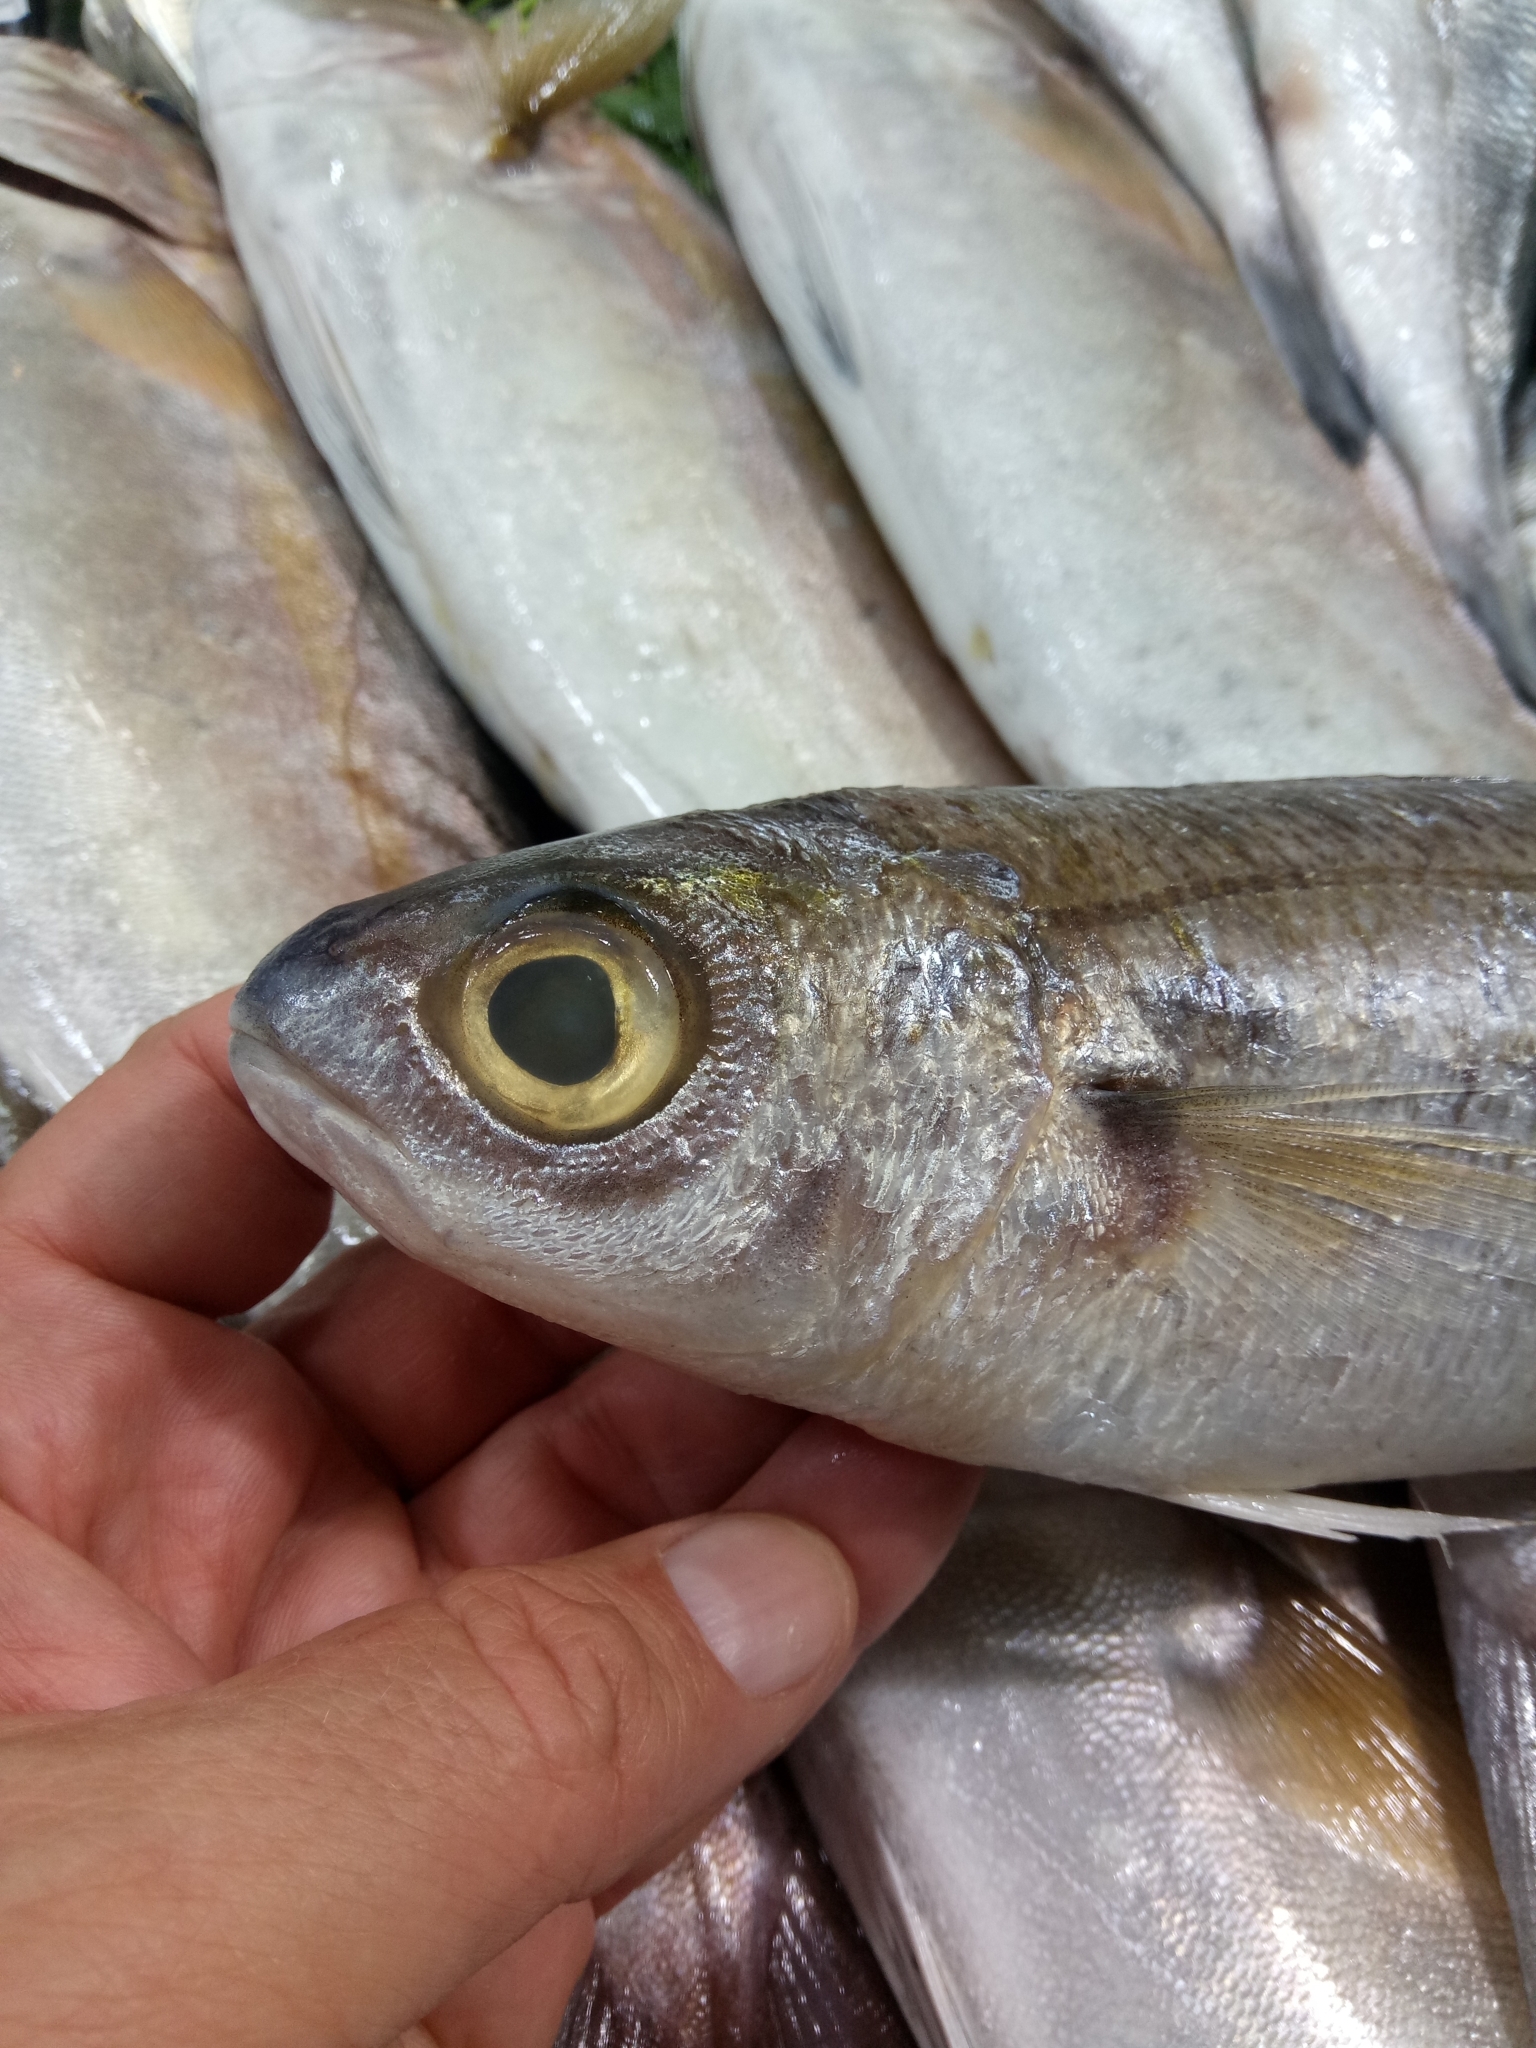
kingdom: Animalia
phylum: Chordata
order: Perciformes
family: Sparidae
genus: Boops
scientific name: Boops boops
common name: Bogue
